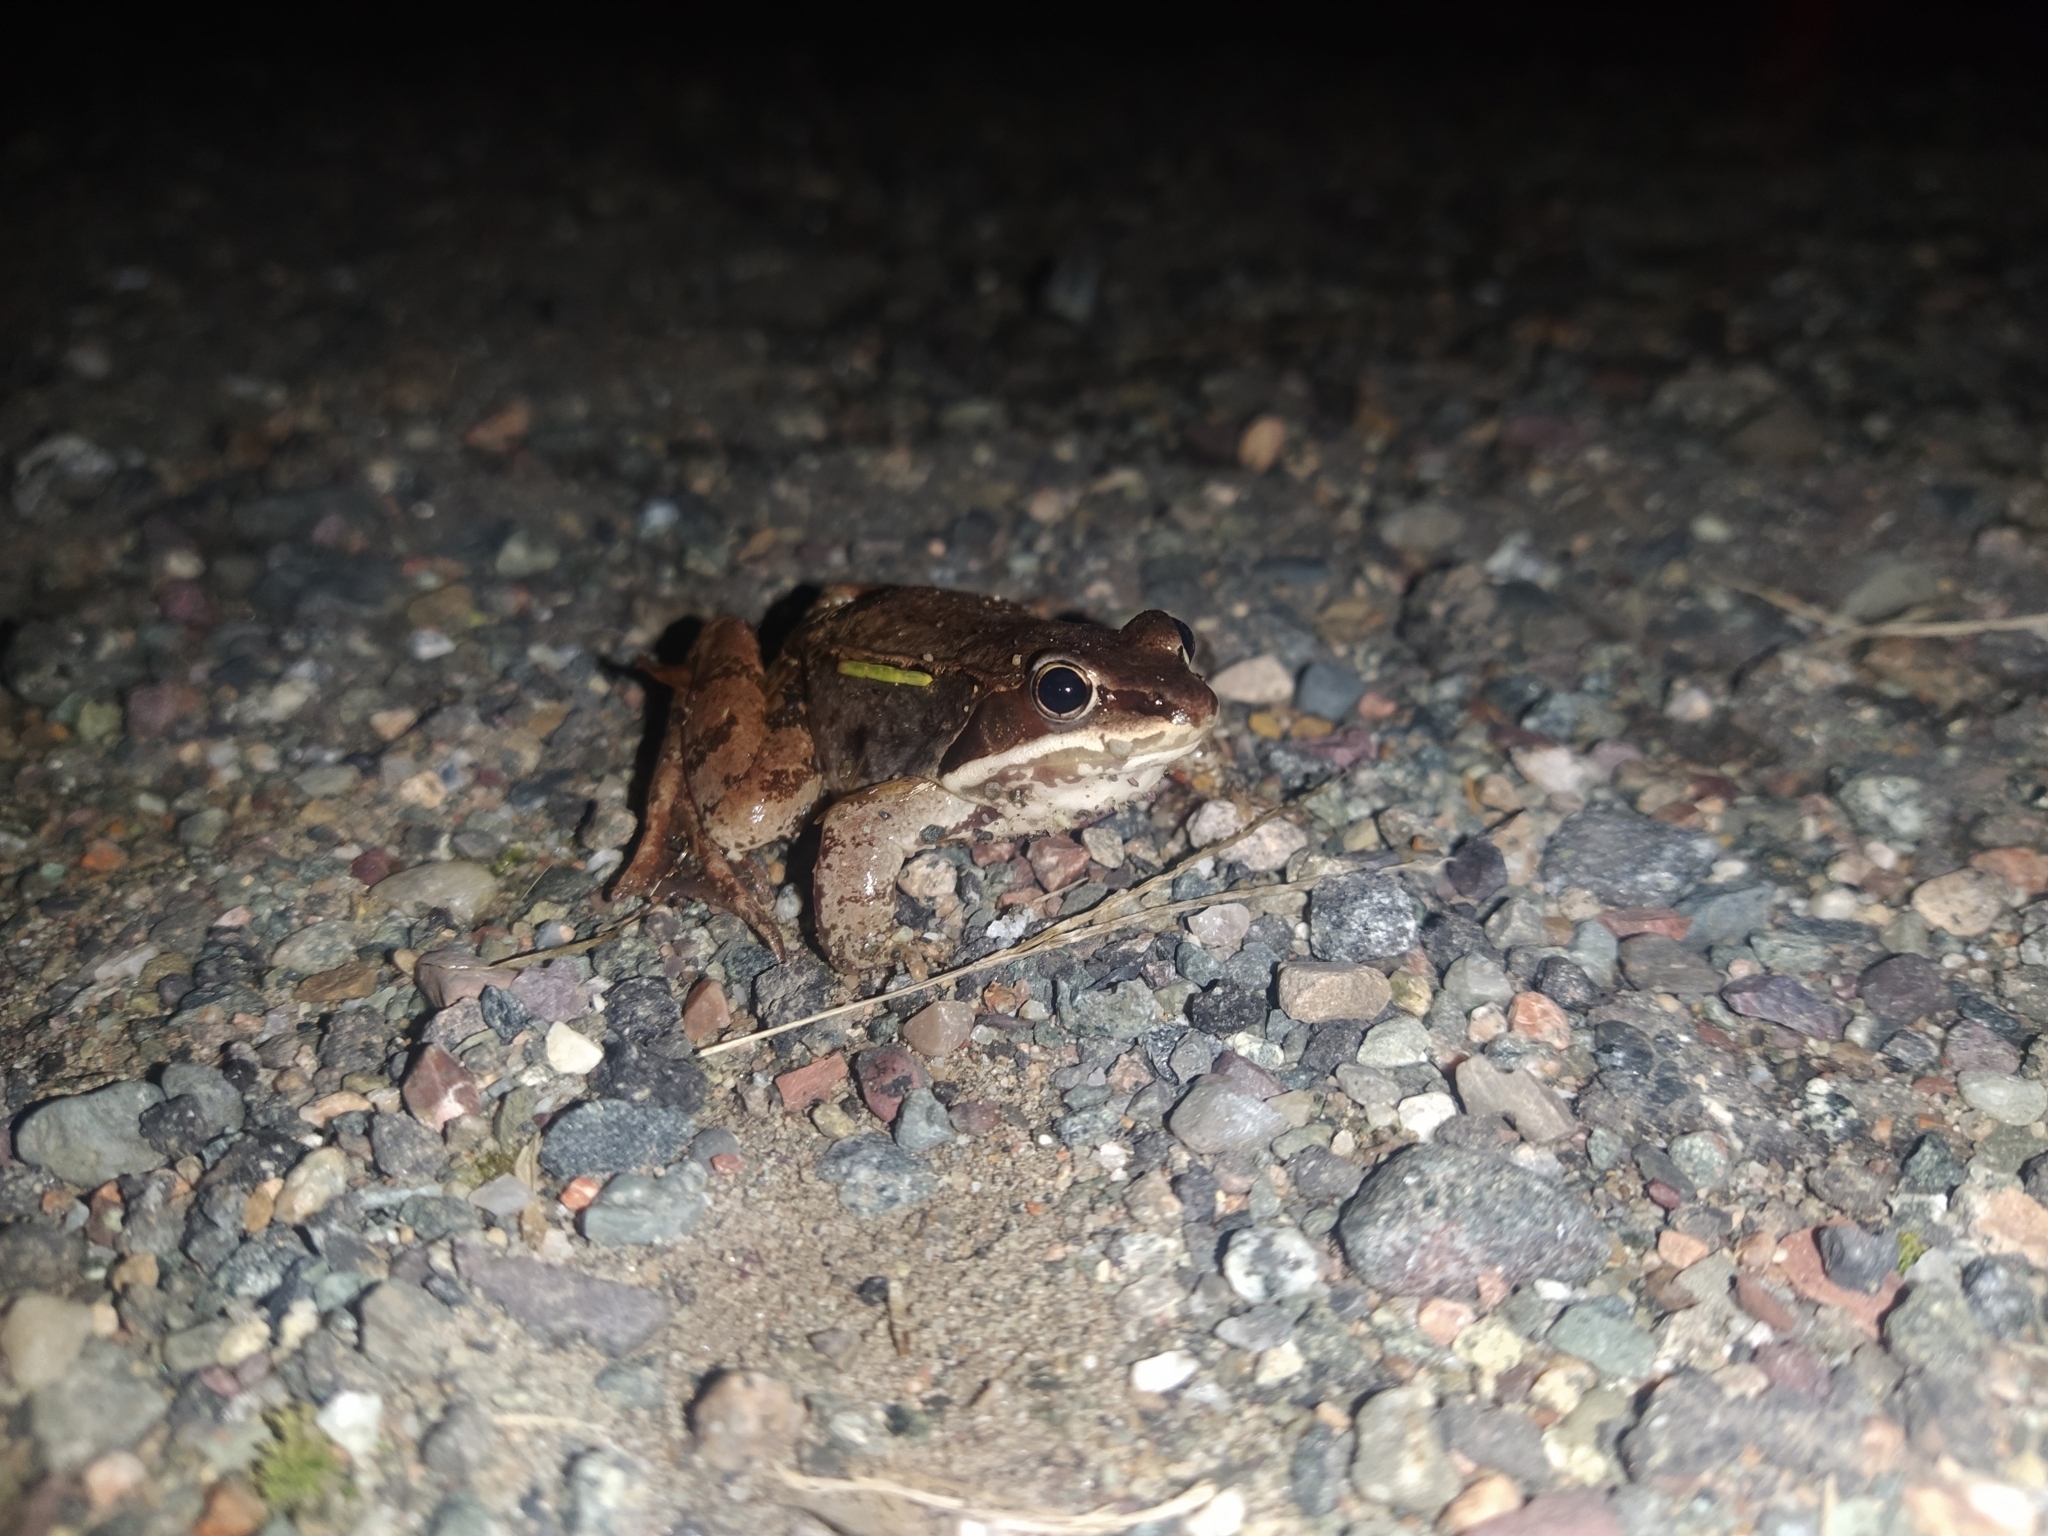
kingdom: Animalia
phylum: Chordata
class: Amphibia
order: Anura
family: Ranidae
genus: Lithobates
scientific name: Lithobates sylvaticus
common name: Wood frog
